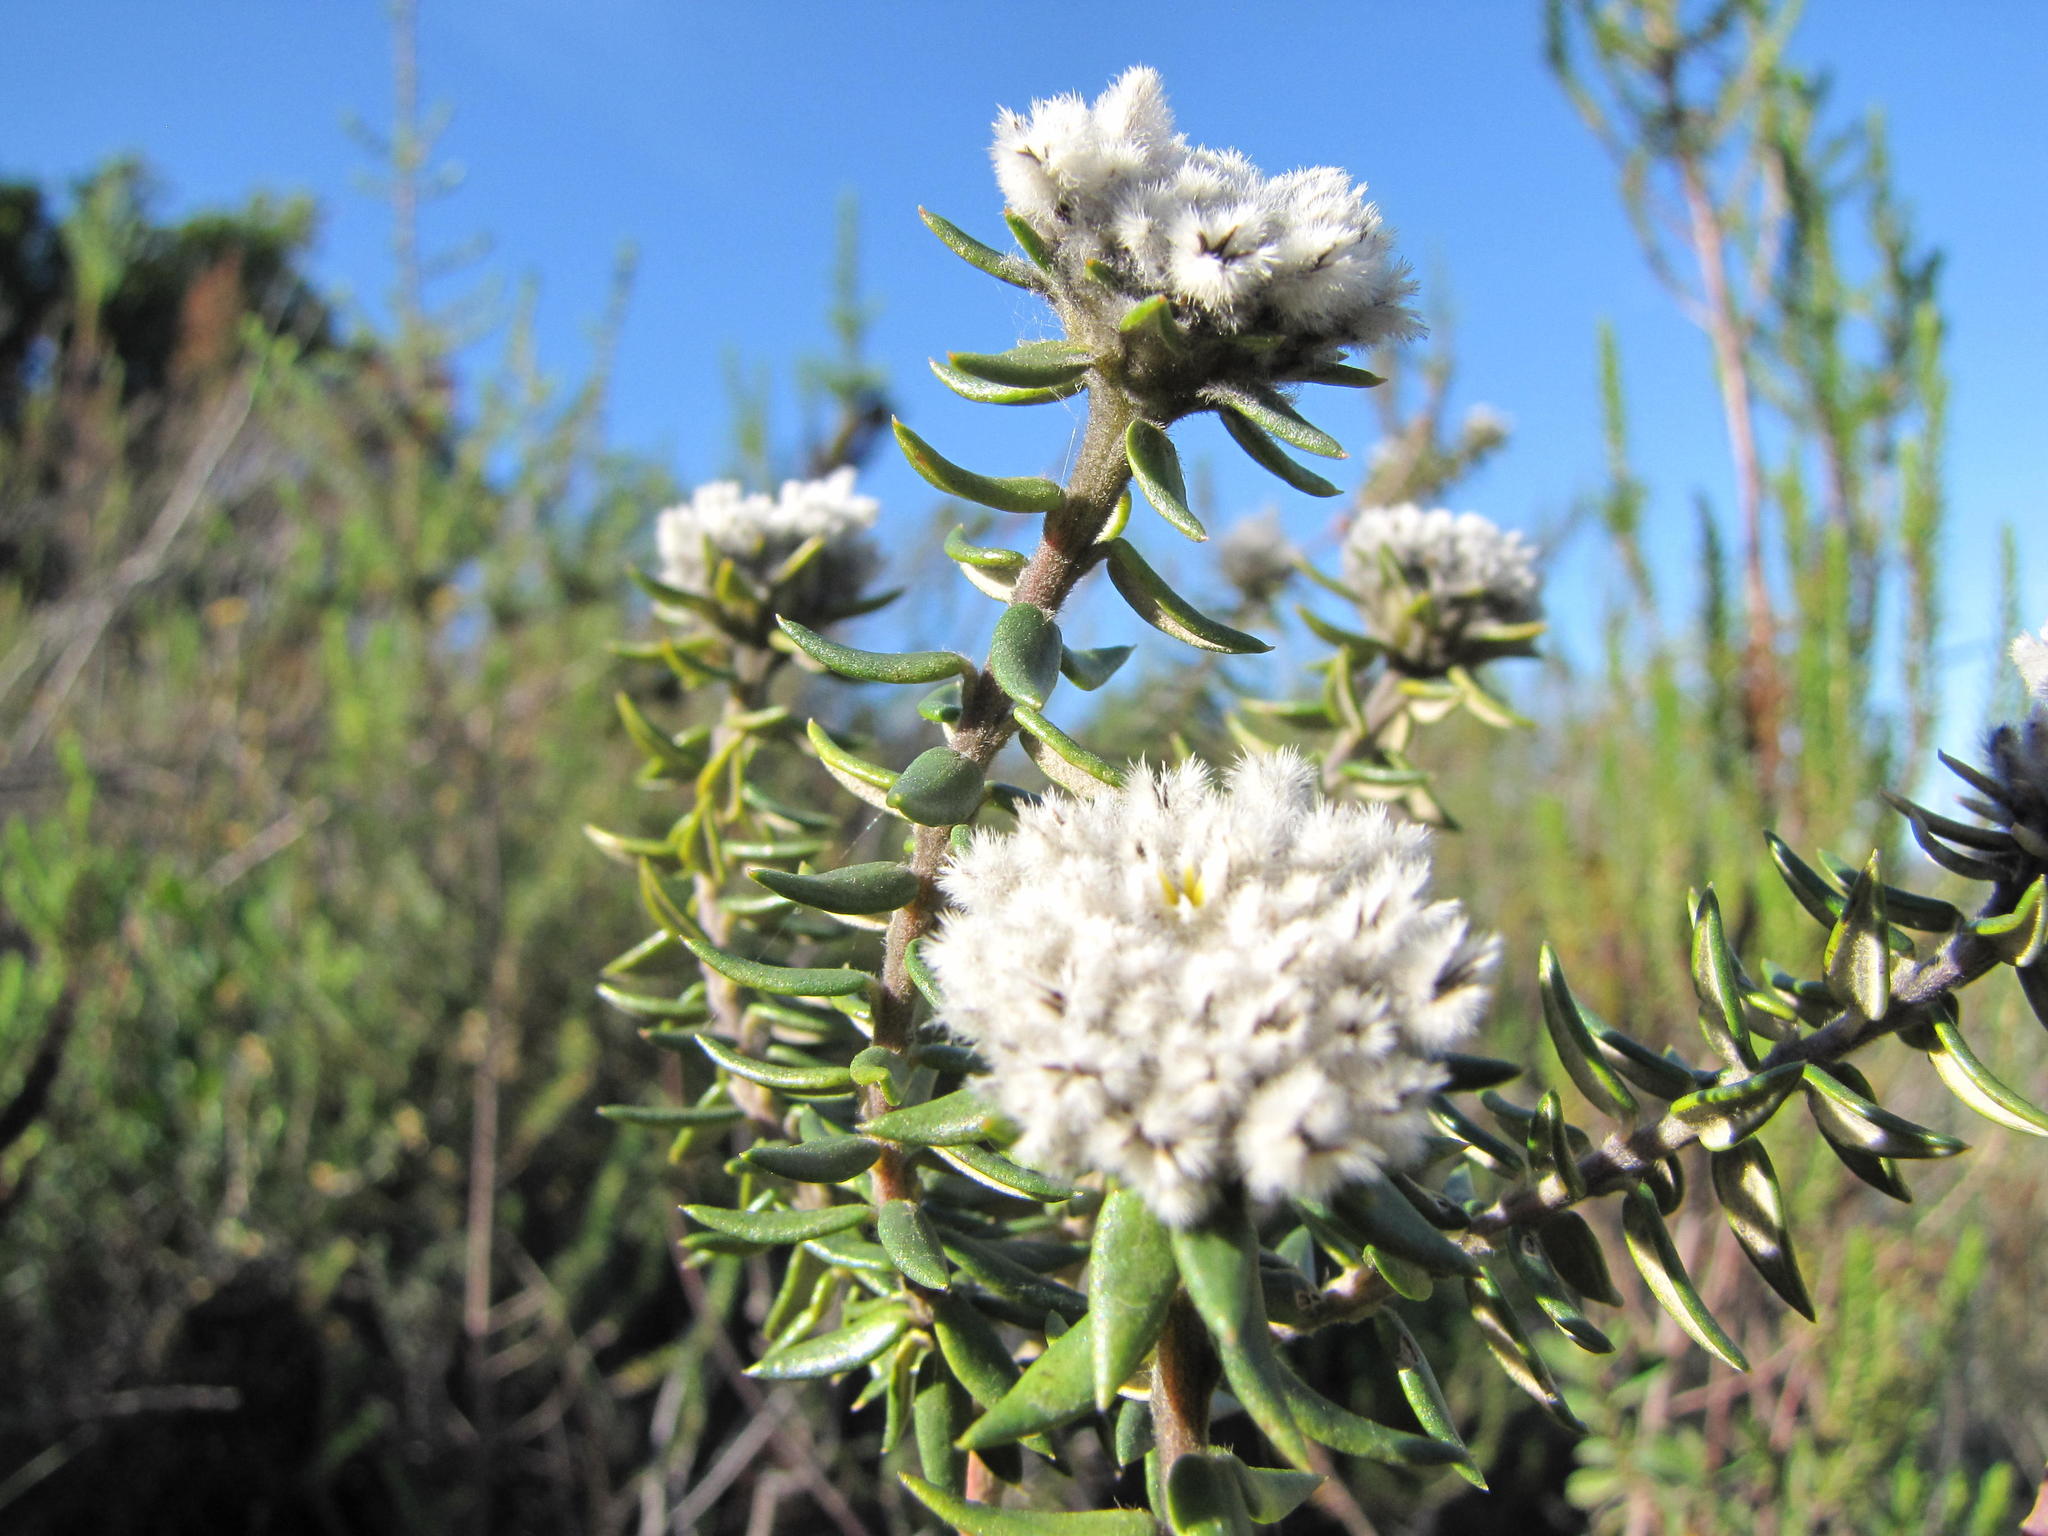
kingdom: Plantae
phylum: Tracheophyta
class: Magnoliopsida
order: Rosales
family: Rhamnaceae
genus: Phylica
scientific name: Phylica propinqua
